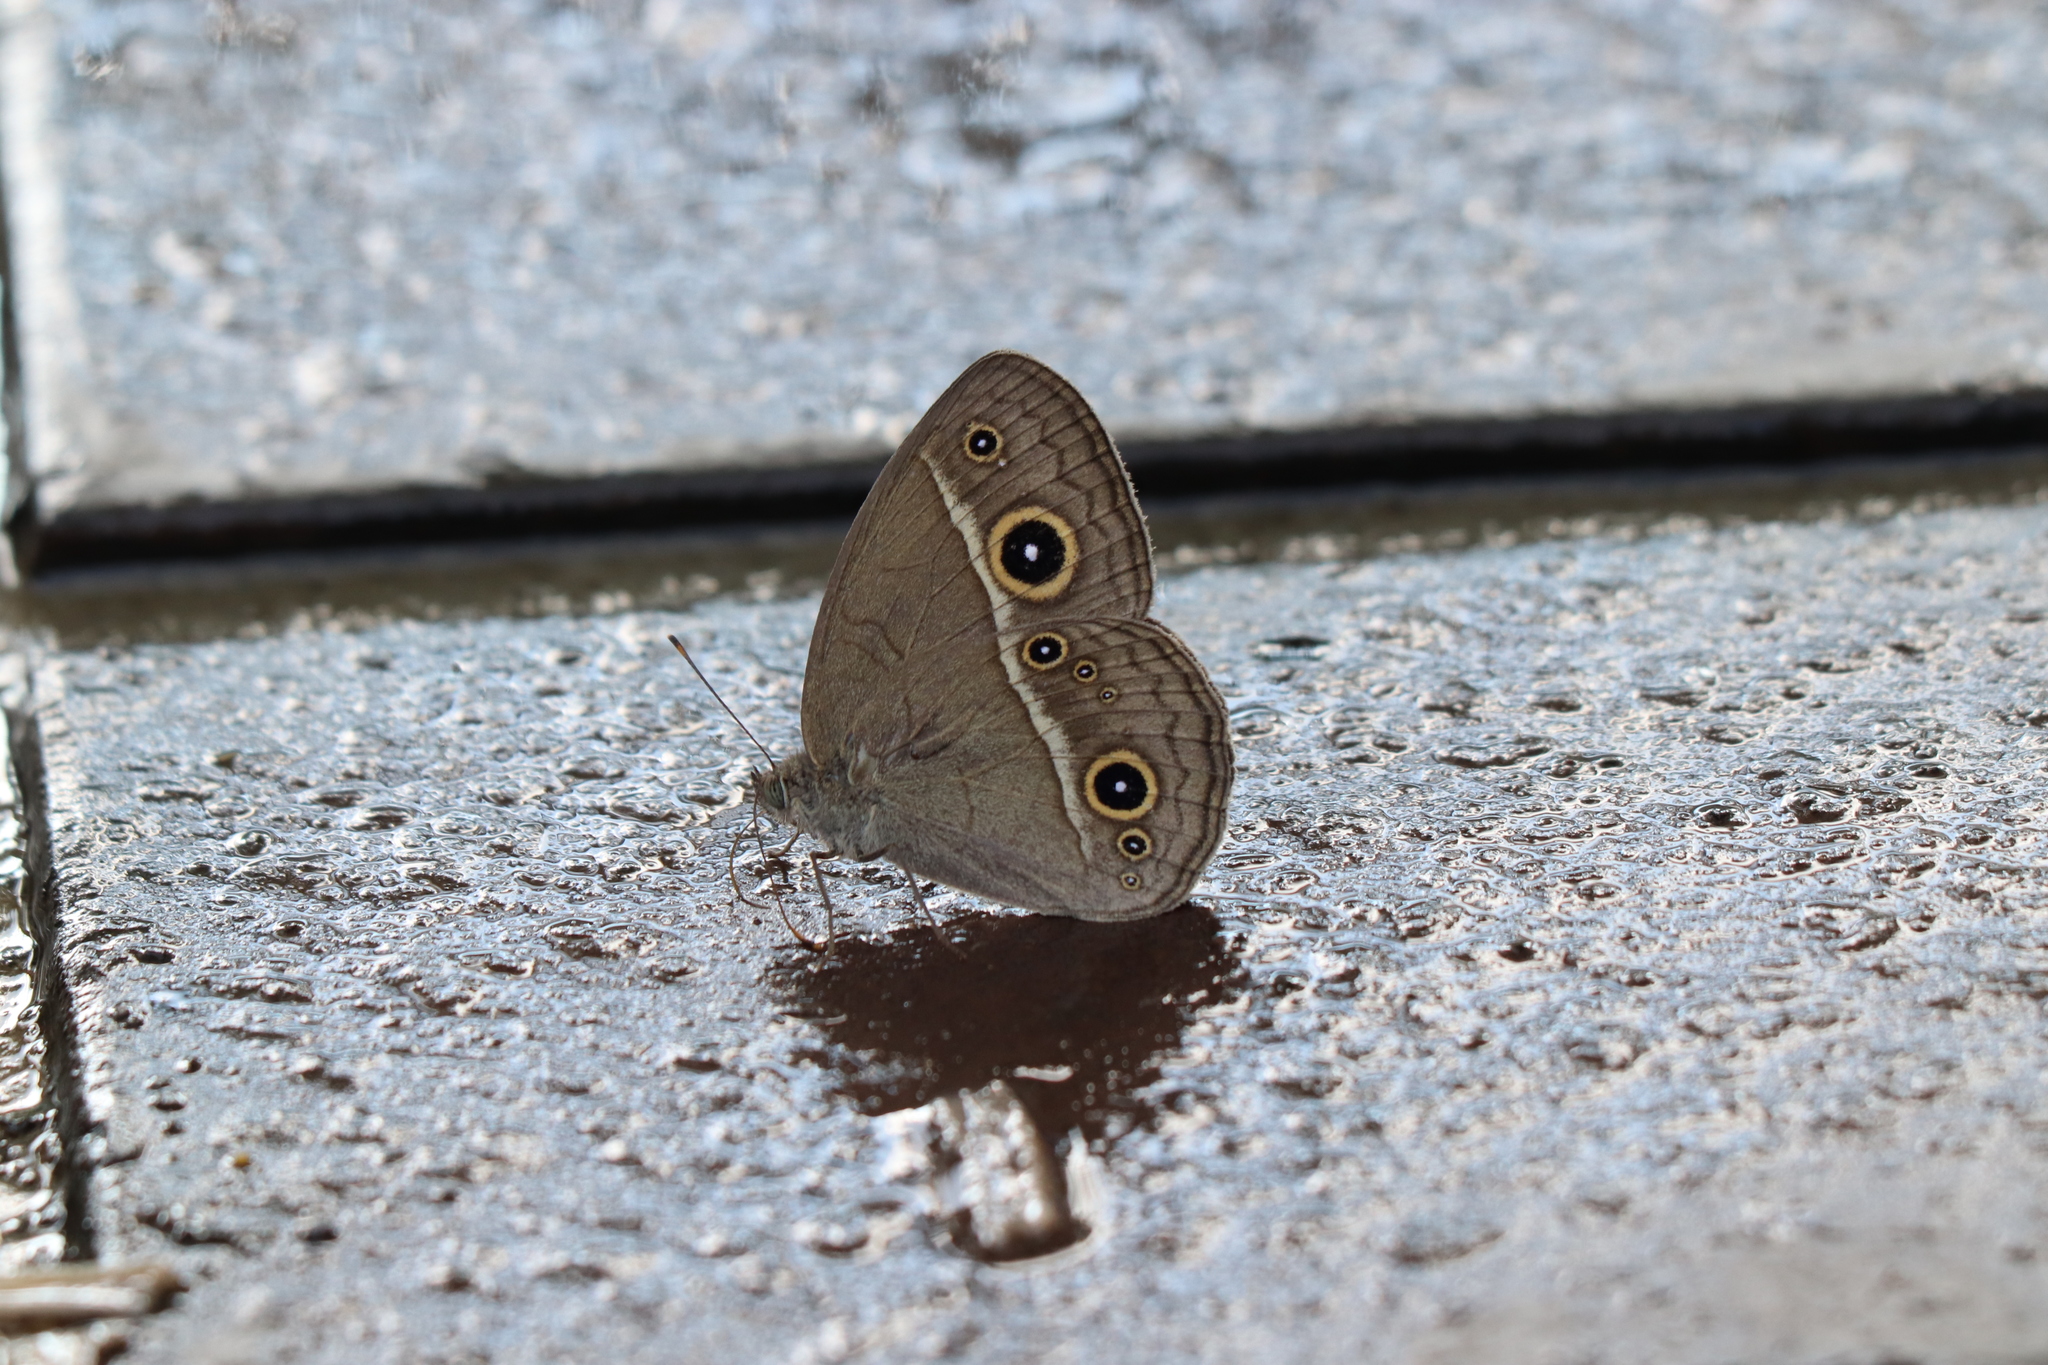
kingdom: Animalia
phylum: Arthropoda
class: Insecta
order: Lepidoptera
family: Nymphalidae
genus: Mycalesis
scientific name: Mycalesis gotama
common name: Chinese bushbrown
